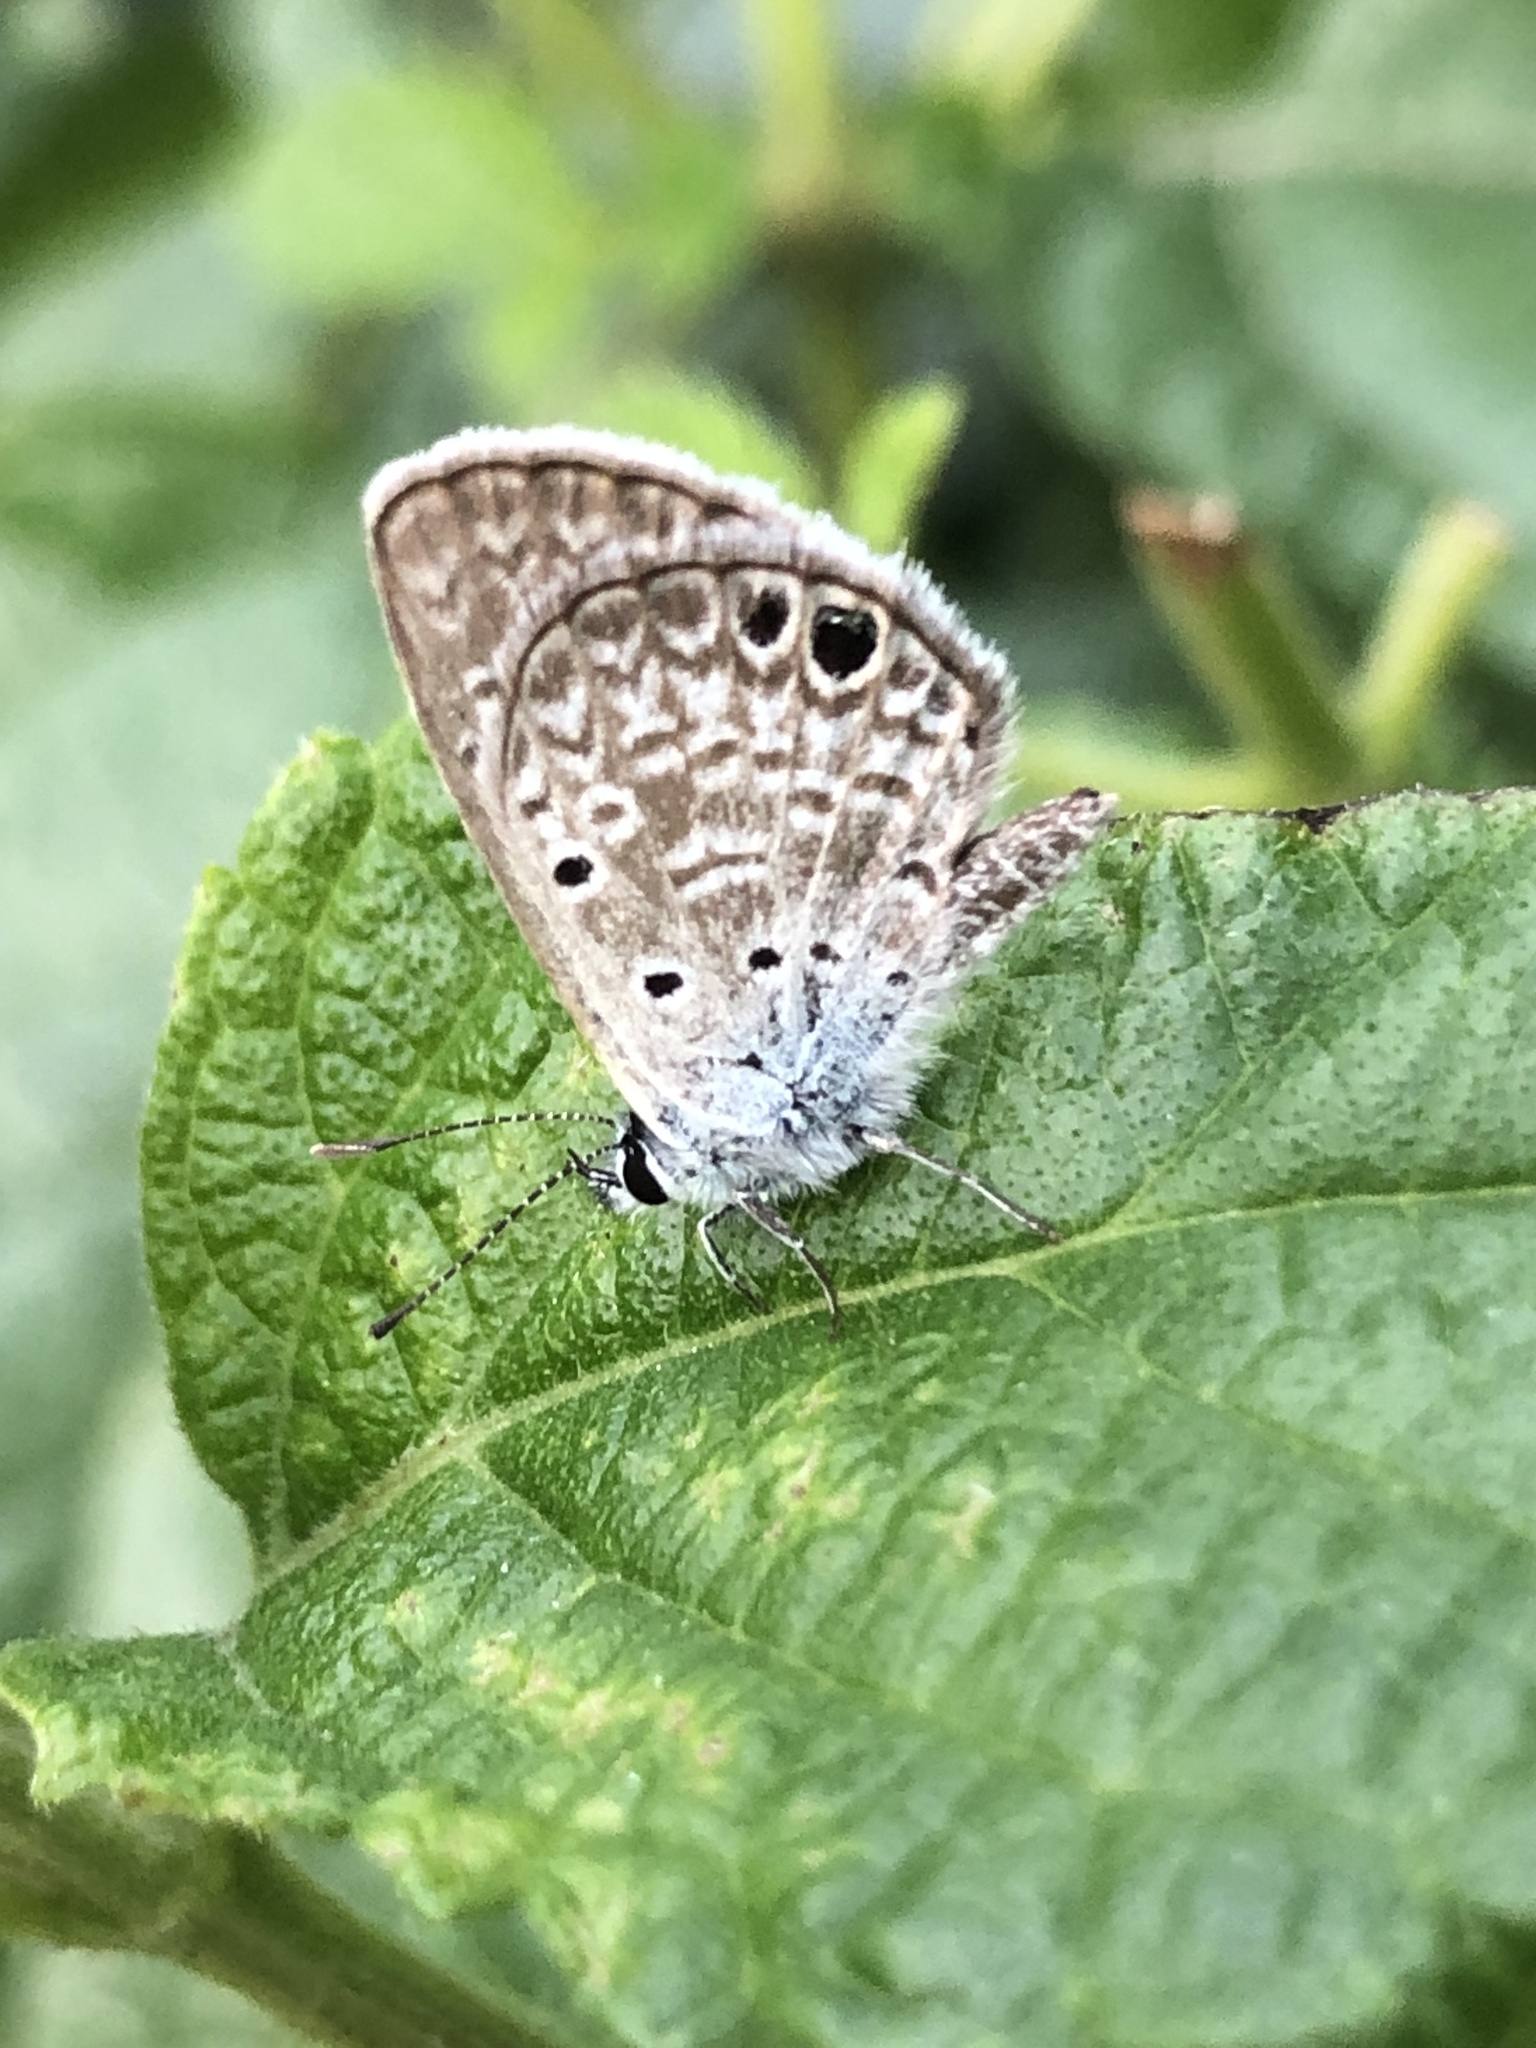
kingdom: Animalia
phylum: Arthropoda
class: Insecta
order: Lepidoptera
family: Lycaenidae
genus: Hemiargus
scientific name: Hemiargus ceraunus
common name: Ceraunus blue
